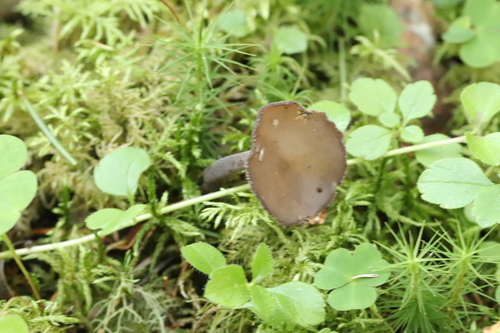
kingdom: Fungi
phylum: Ascomycota
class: Pezizomycetes
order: Pezizales
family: Helvellaceae
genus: Helvella
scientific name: Helvella macropus
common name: Felt saddle
